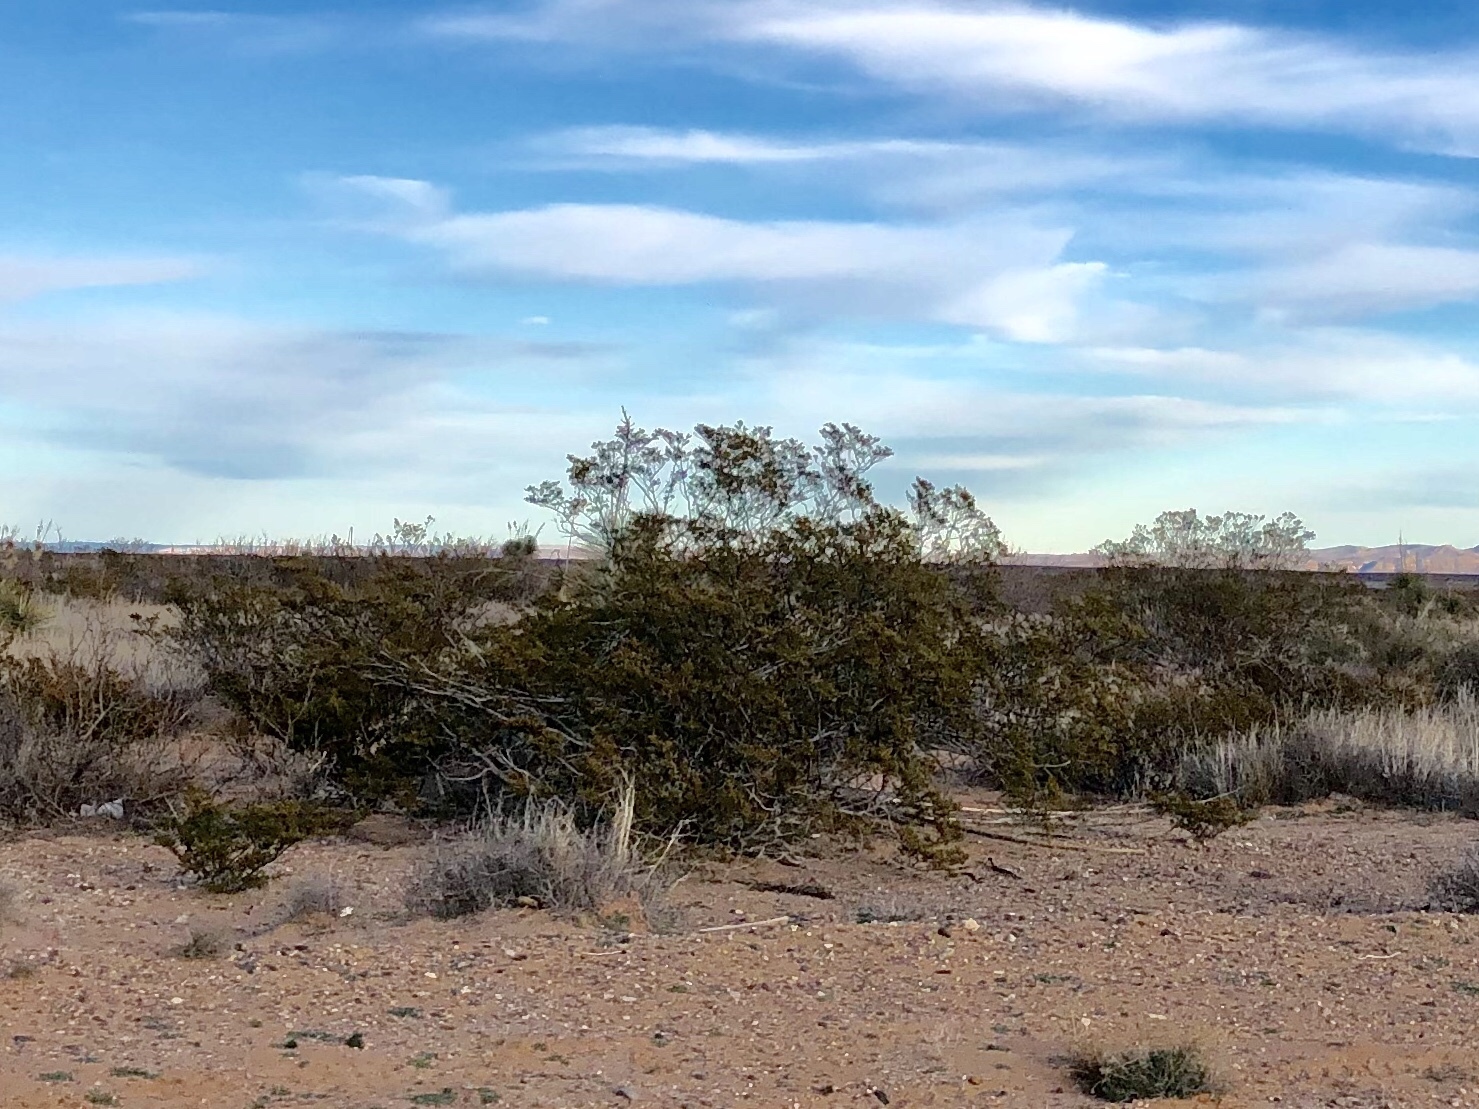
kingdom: Plantae
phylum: Tracheophyta
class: Magnoliopsida
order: Zygophyllales
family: Zygophyllaceae
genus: Larrea
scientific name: Larrea tridentata
